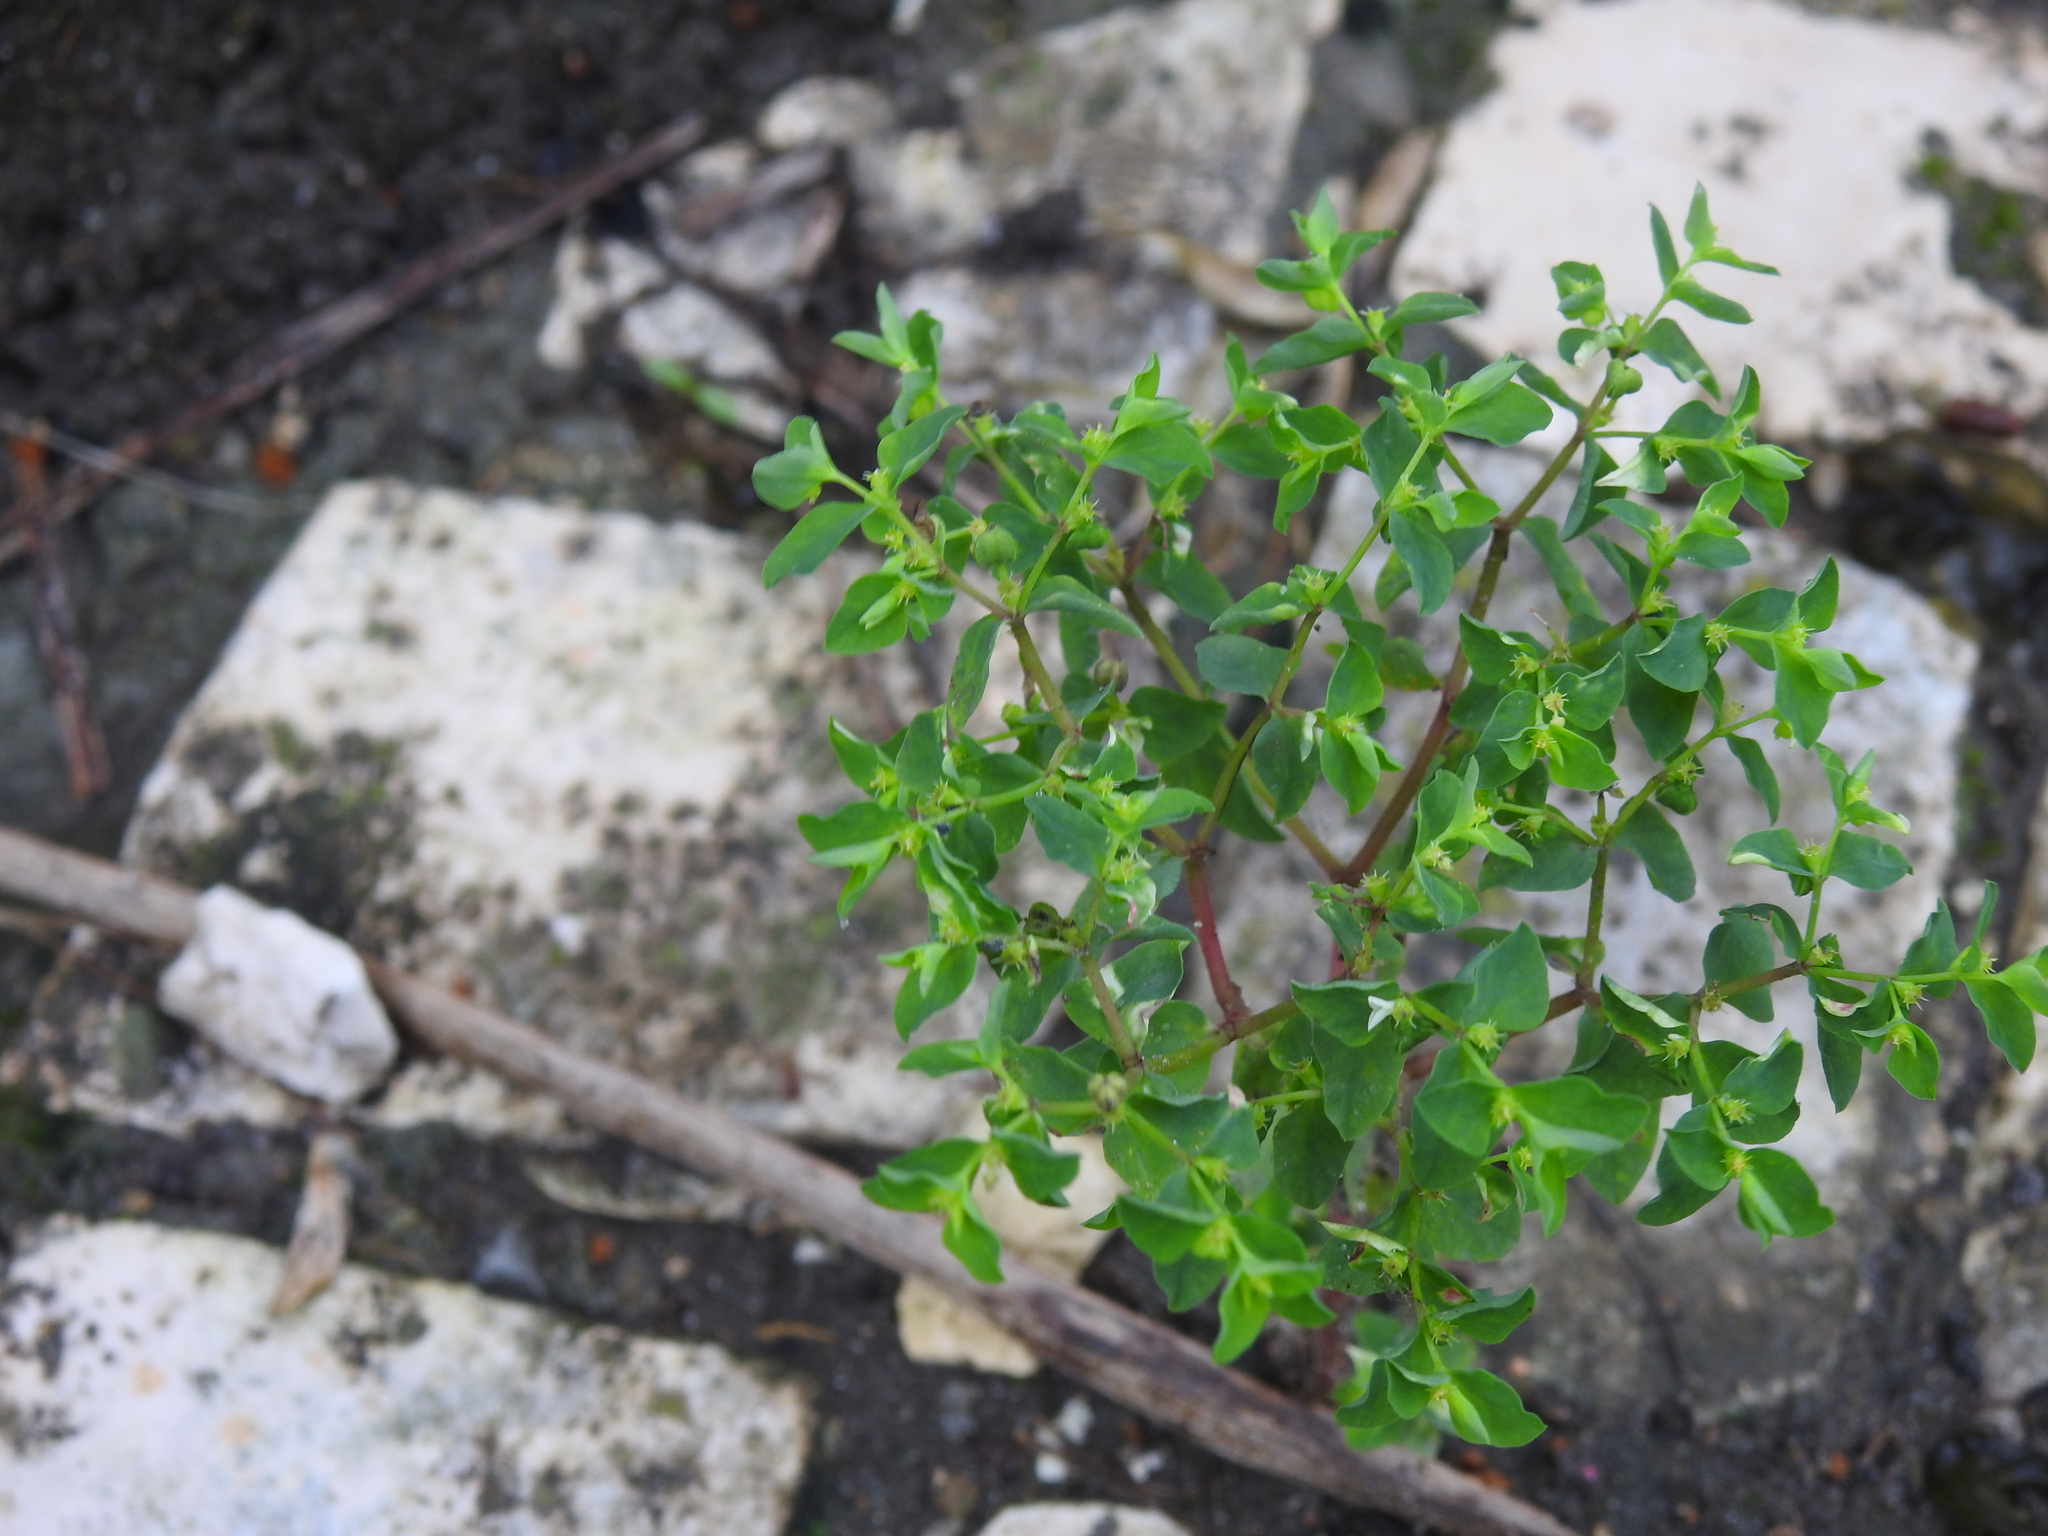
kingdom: Plantae
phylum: Tracheophyta
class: Magnoliopsida
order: Malpighiales
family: Euphorbiaceae
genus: Euphorbia
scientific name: Euphorbia peplus
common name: Petty spurge
